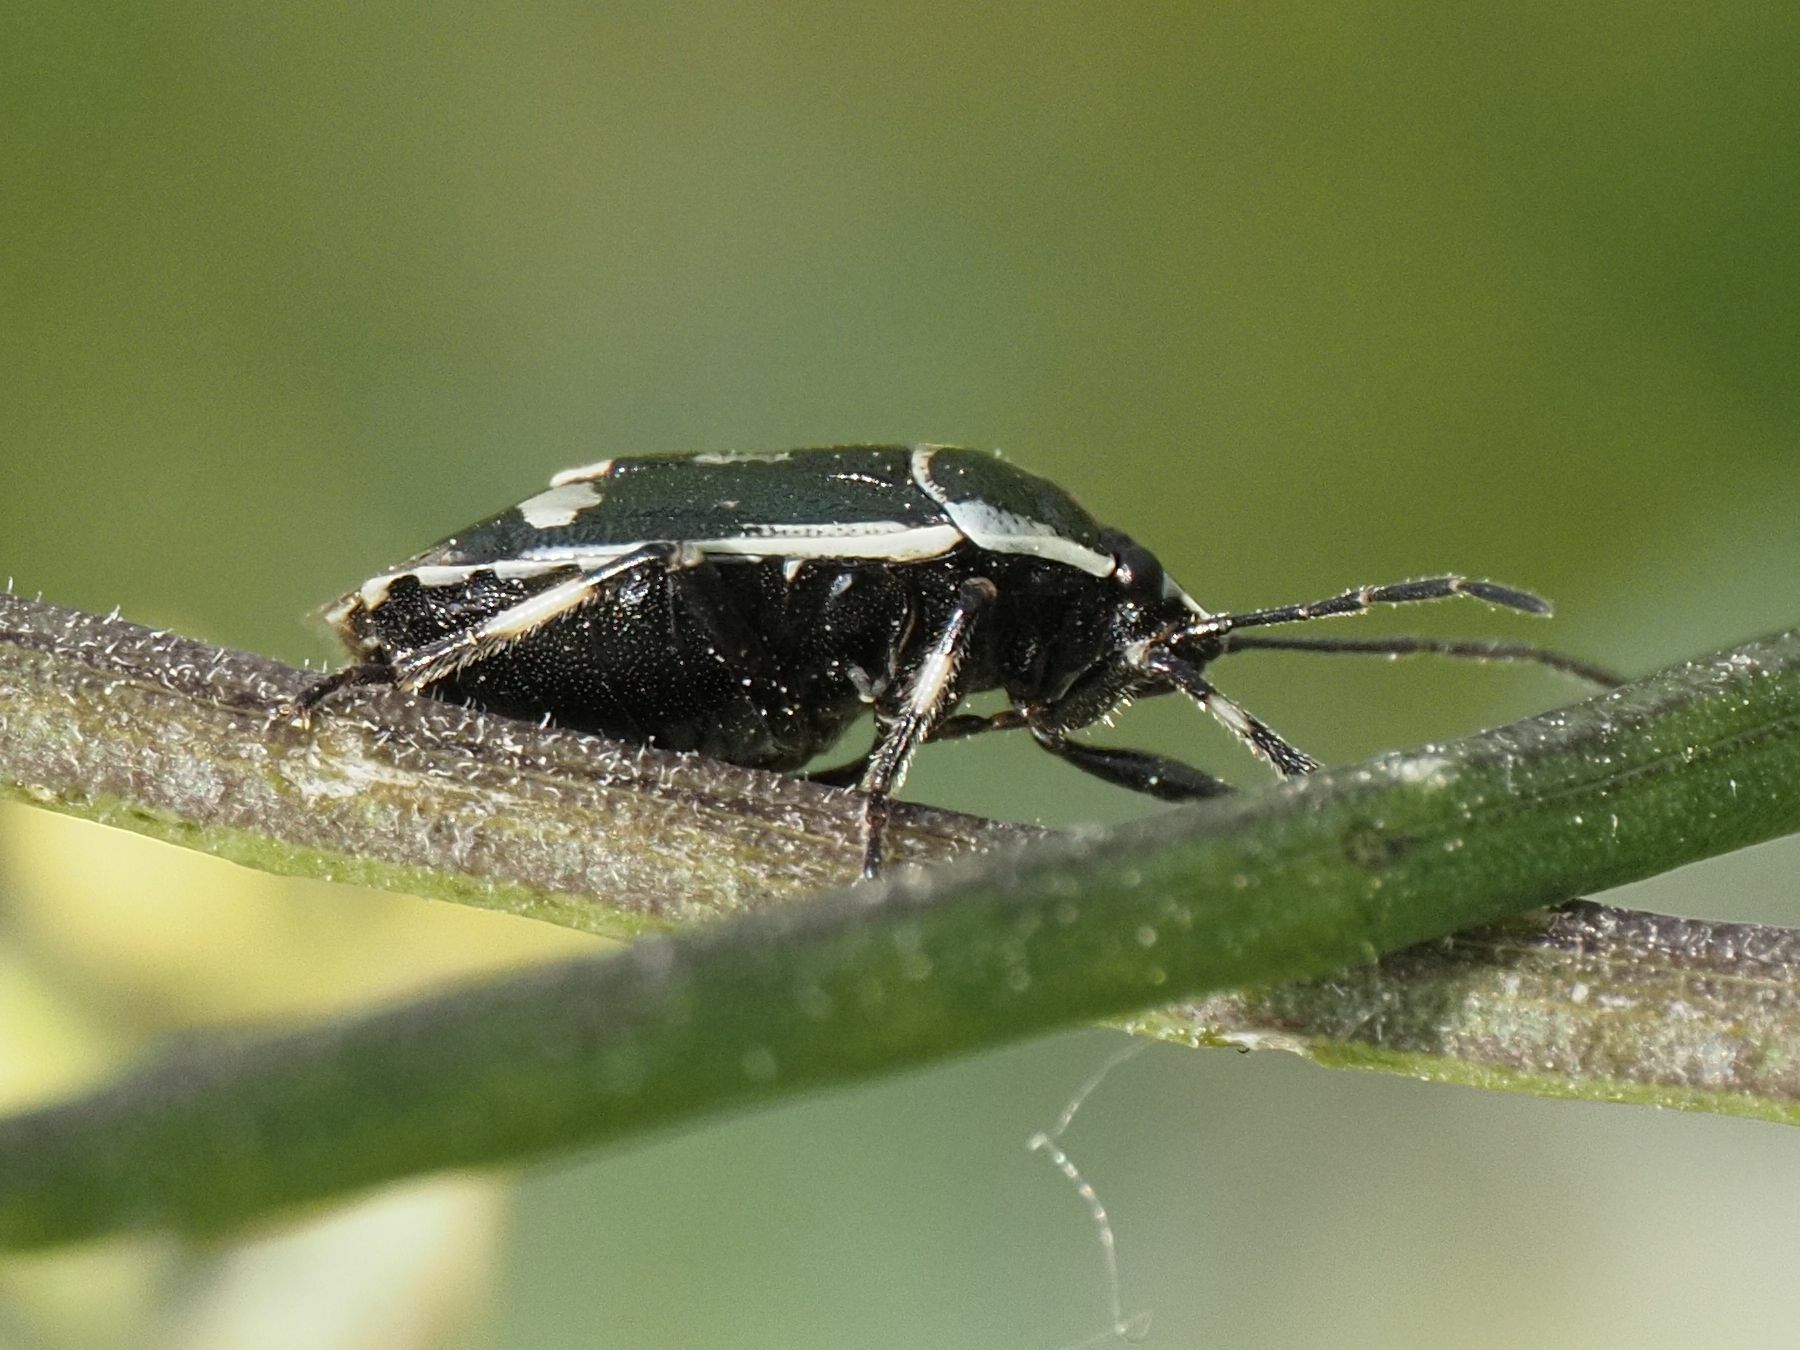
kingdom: Animalia
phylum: Arthropoda
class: Insecta
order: Hemiptera
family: Pentatomidae
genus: Eurydema
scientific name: Eurydema oleracea
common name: Cabbage bug
